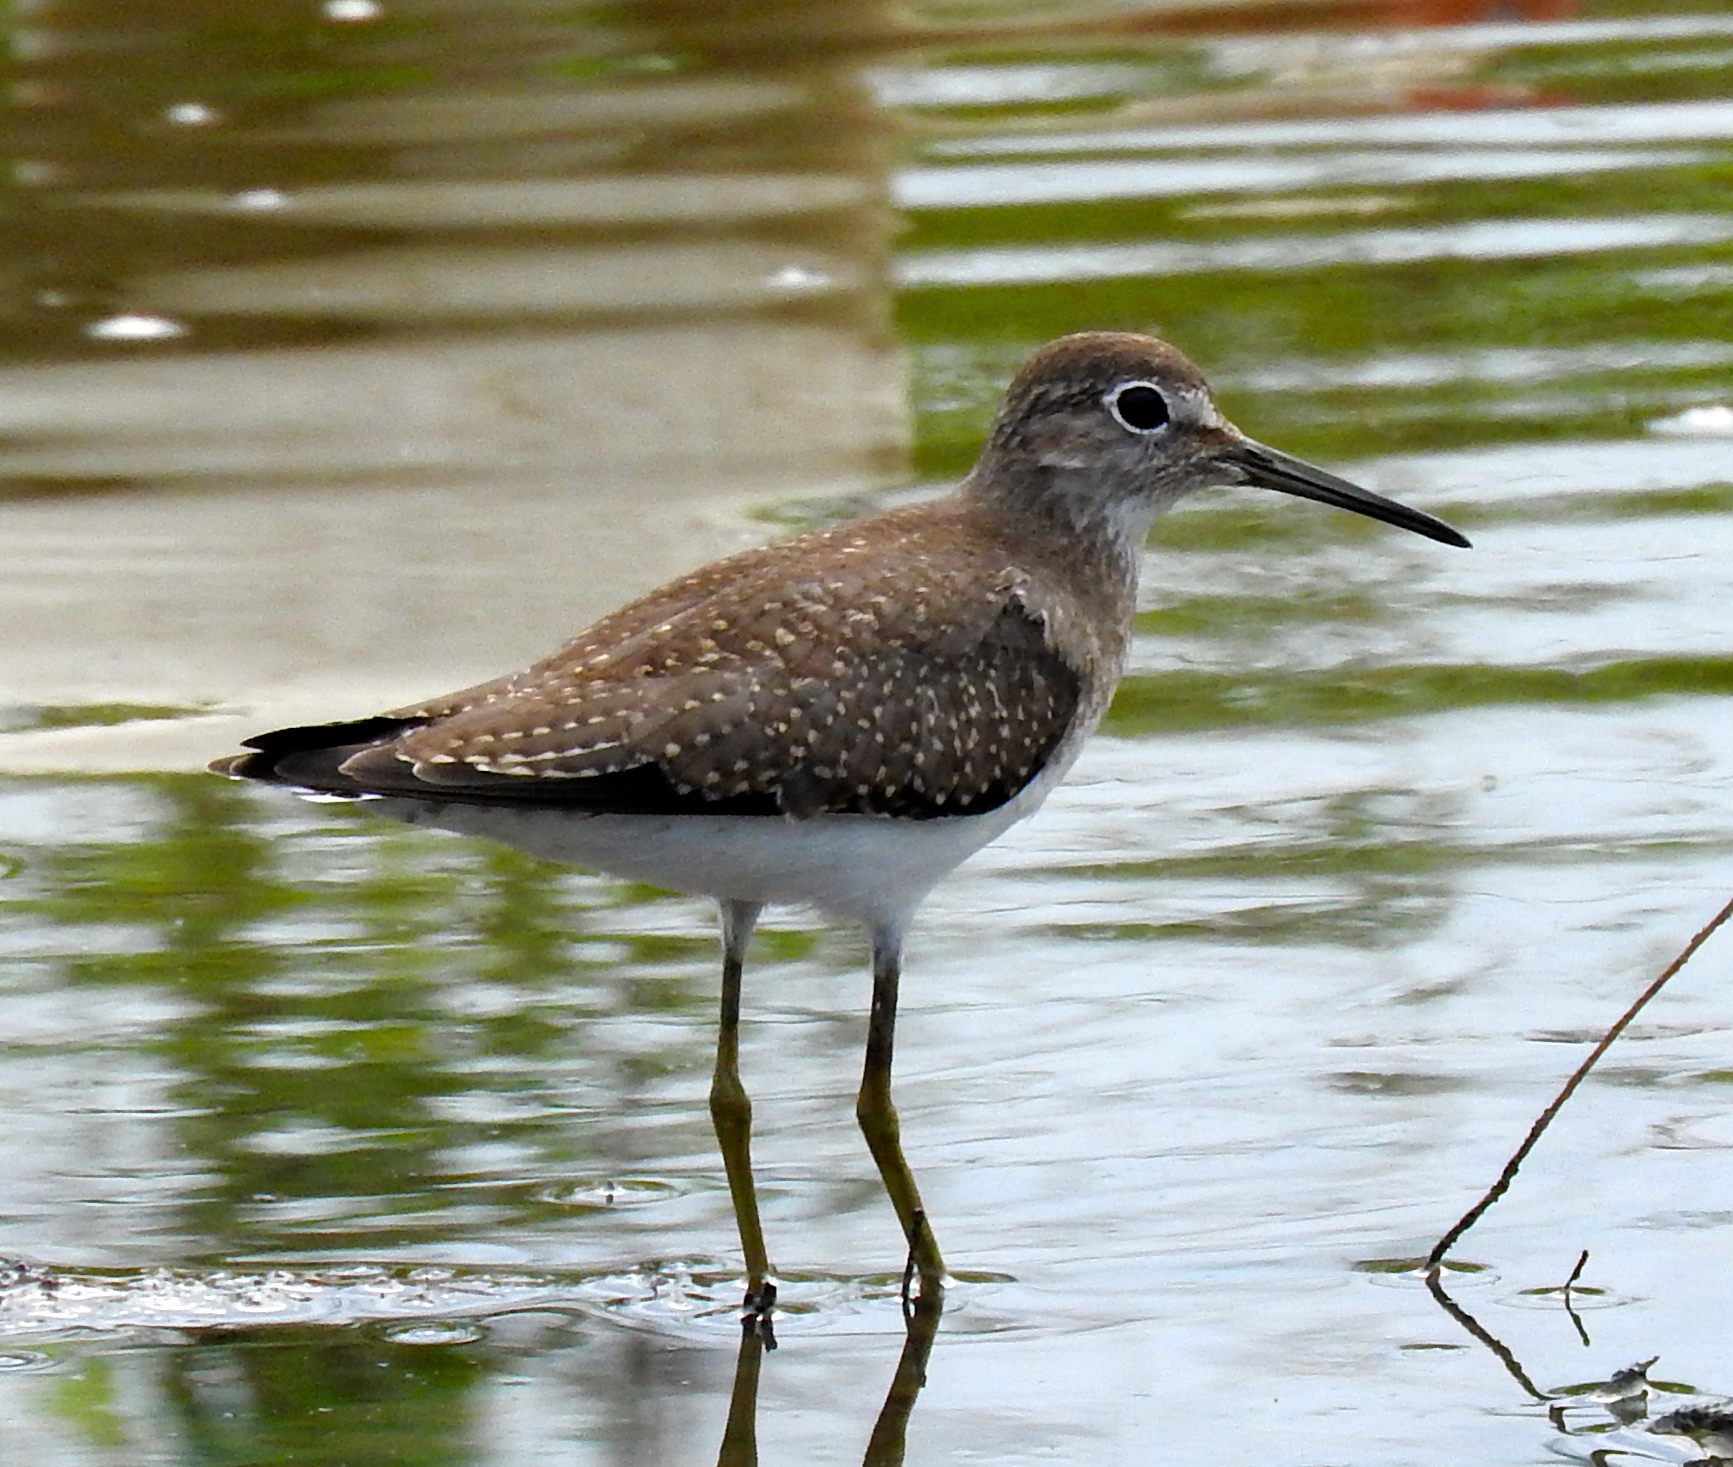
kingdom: Animalia
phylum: Chordata
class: Aves
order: Charadriiformes
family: Scolopacidae
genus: Tringa
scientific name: Tringa solitaria
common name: Solitary sandpiper
